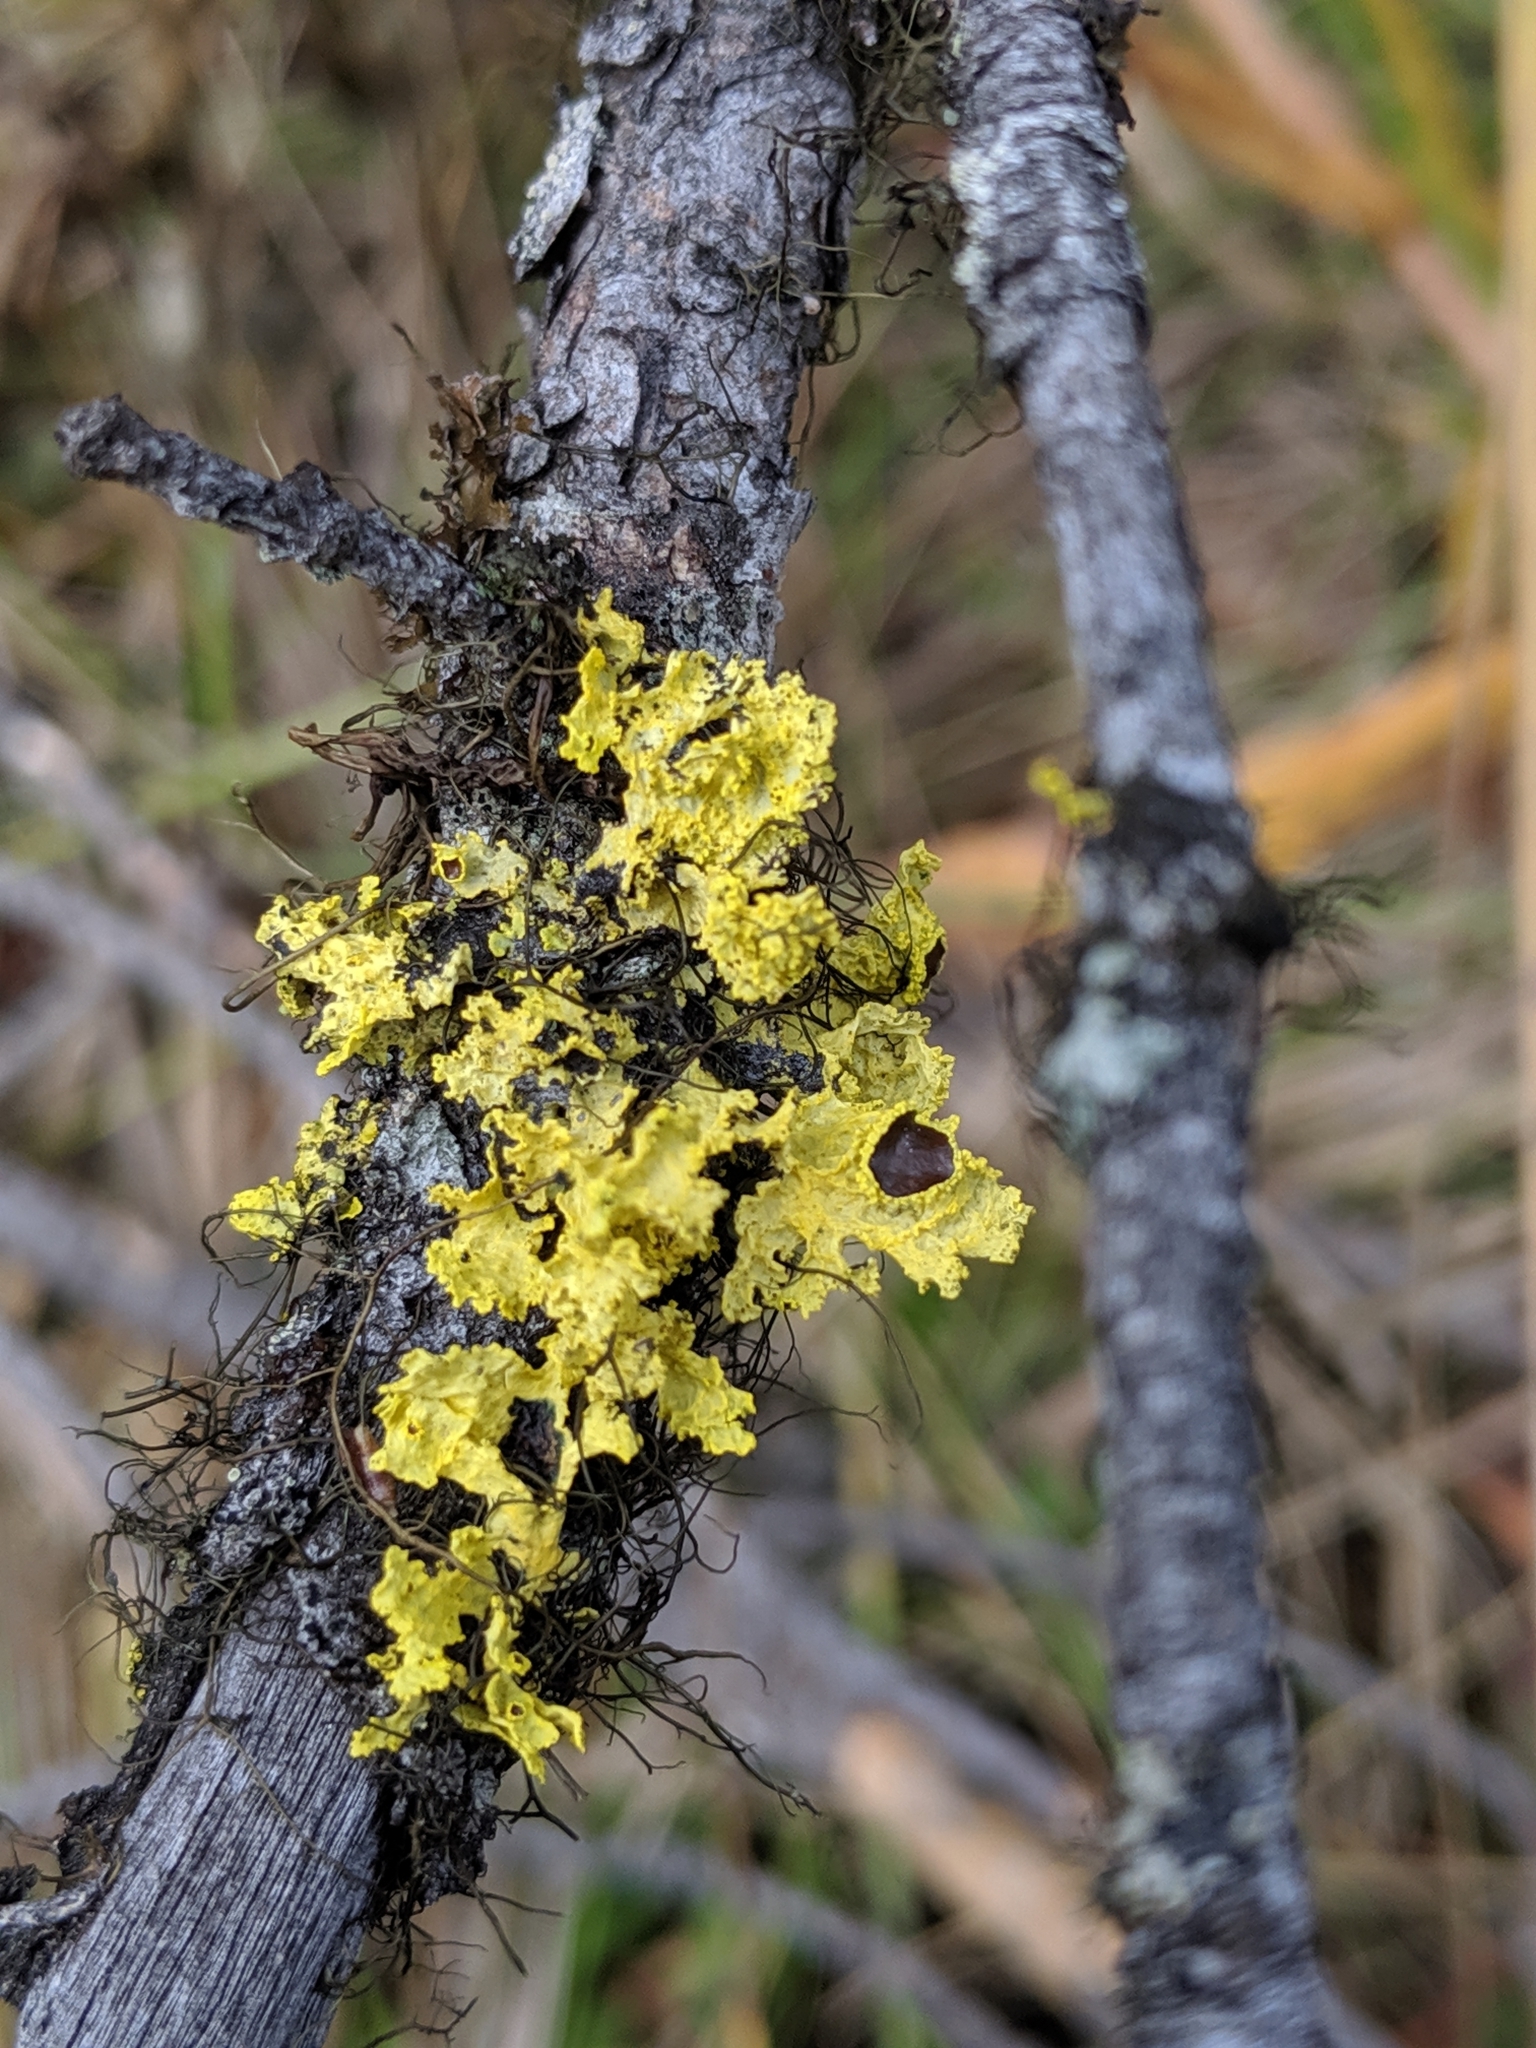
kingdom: Fungi
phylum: Ascomycota
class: Lecanoromycetes
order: Lecanorales
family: Parmeliaceae
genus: Vulpicida
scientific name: Vulpicida canadensis
